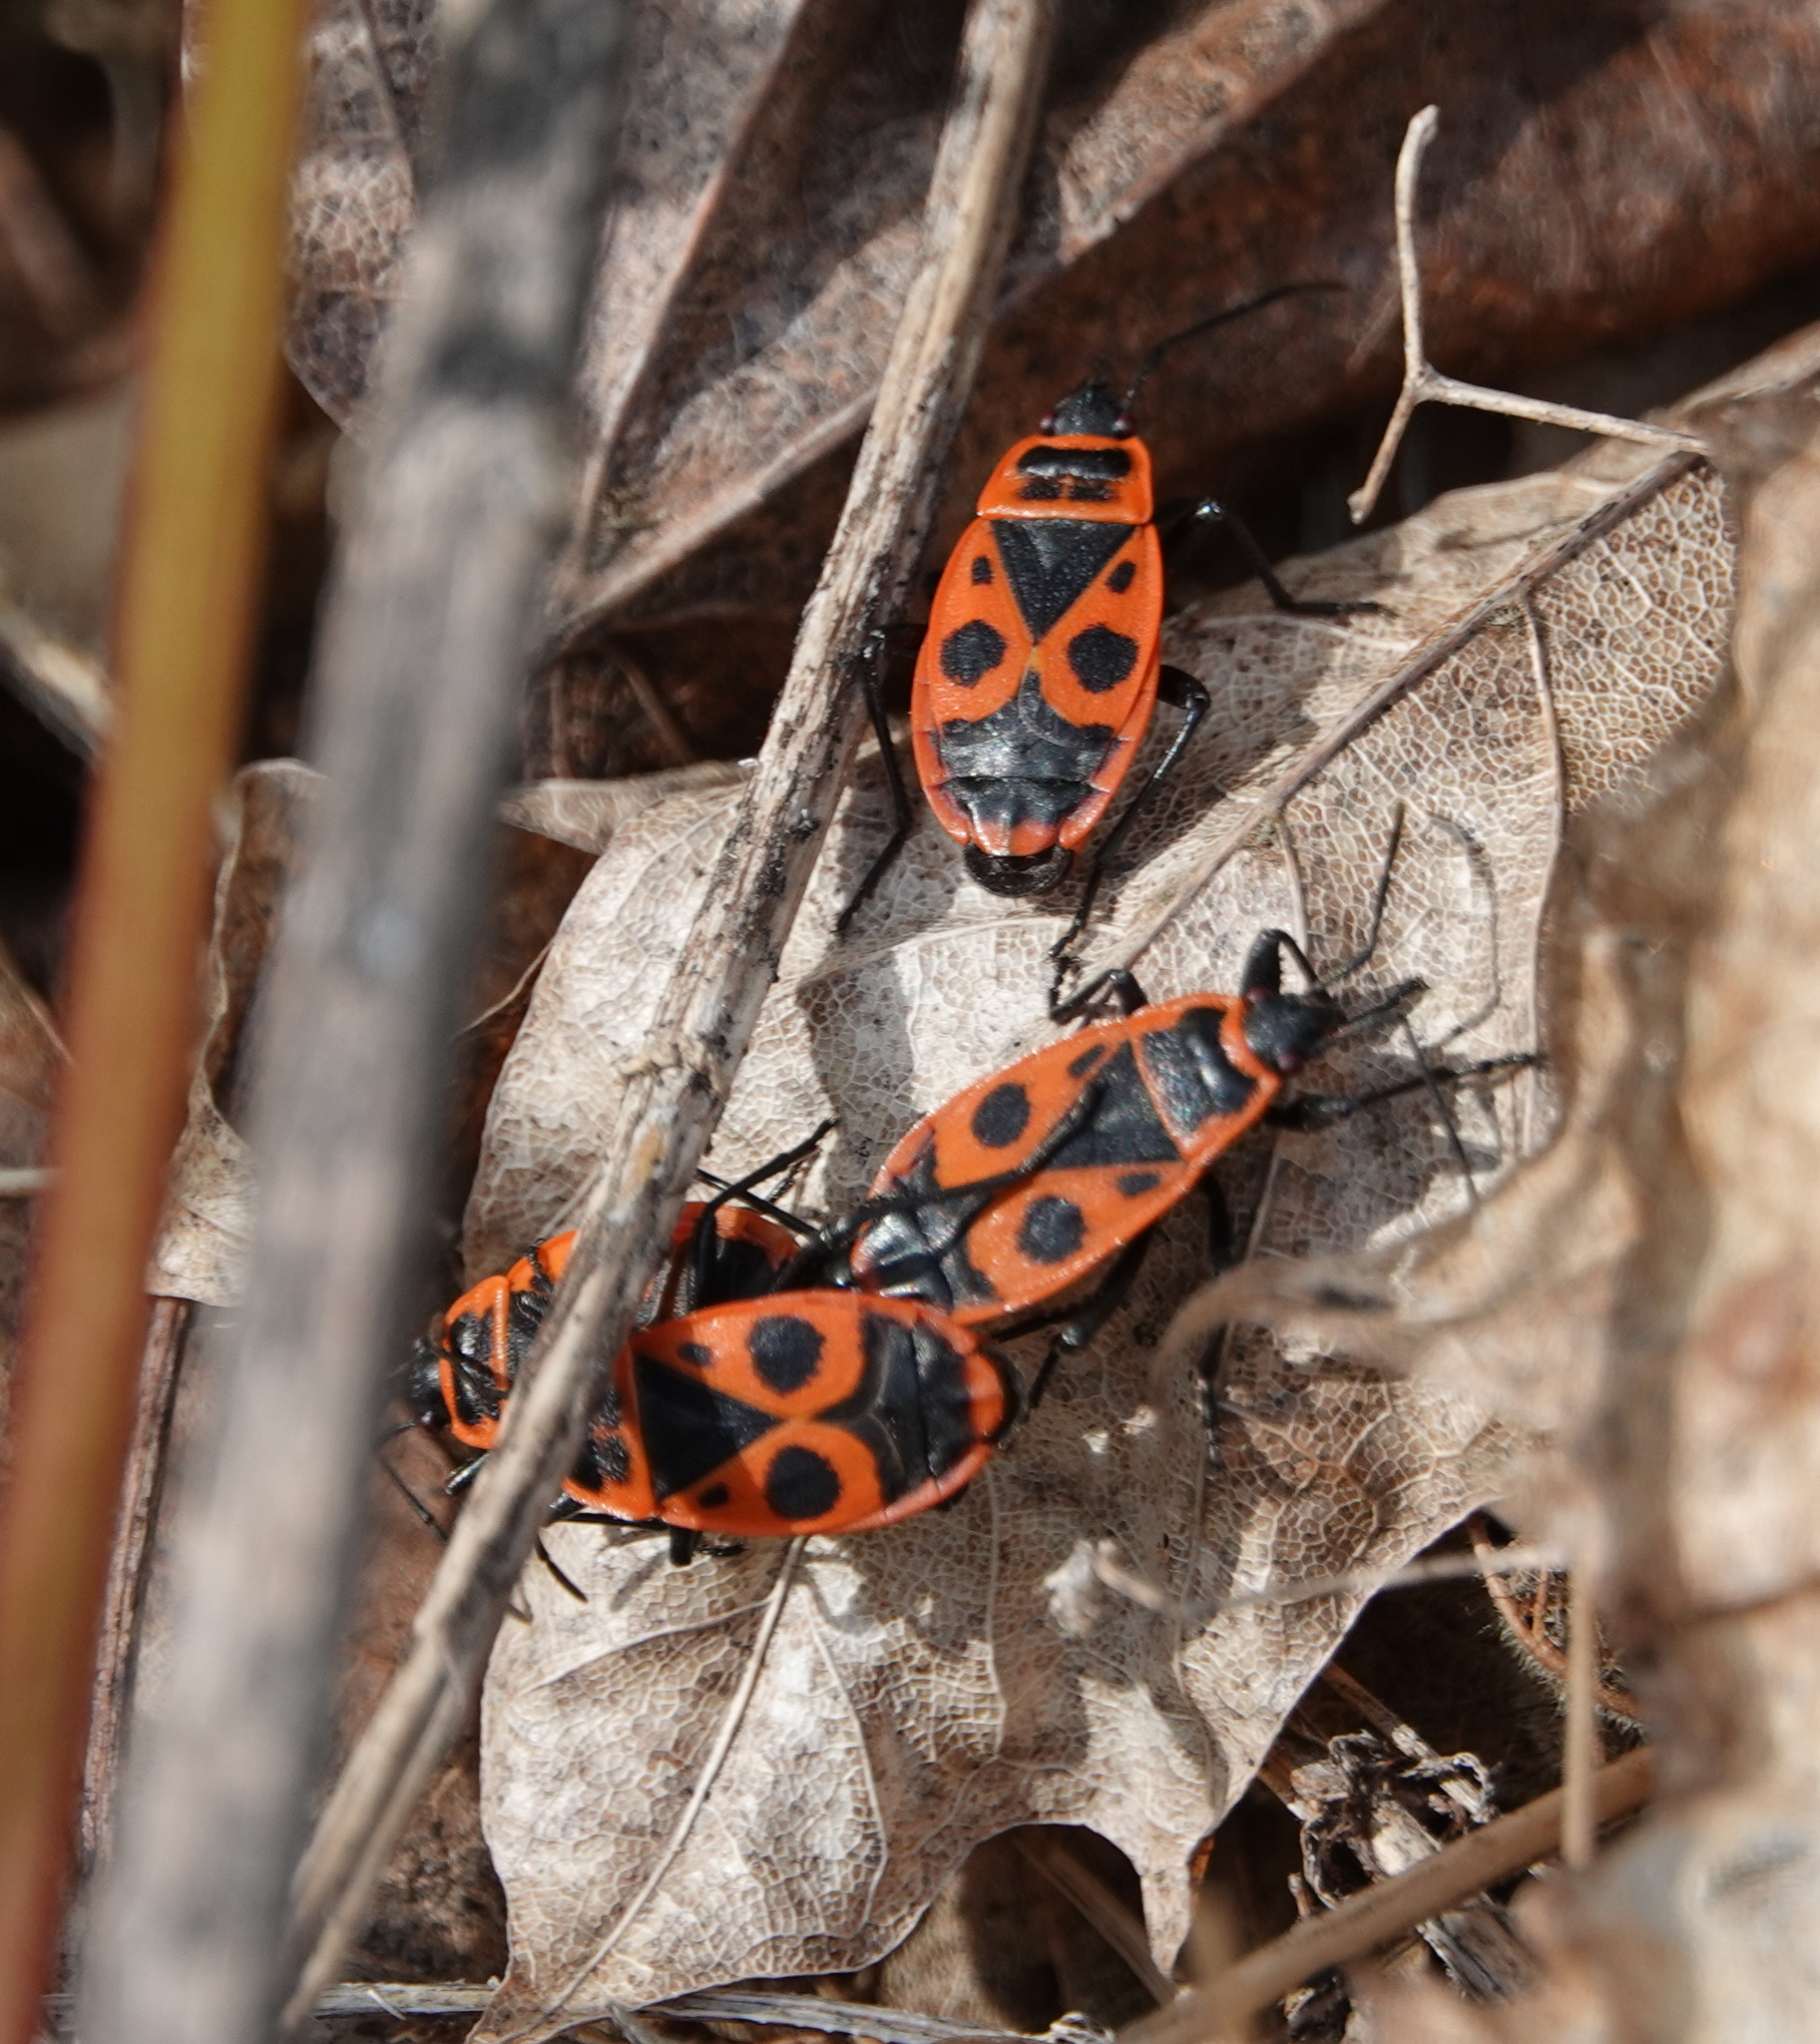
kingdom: Animalia
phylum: Arthropoda
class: Insecta
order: Hemiptera
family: Pyrrhocoridae
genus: Pyrrhocoris
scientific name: Pyrrhocoris apterus
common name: Firebug
